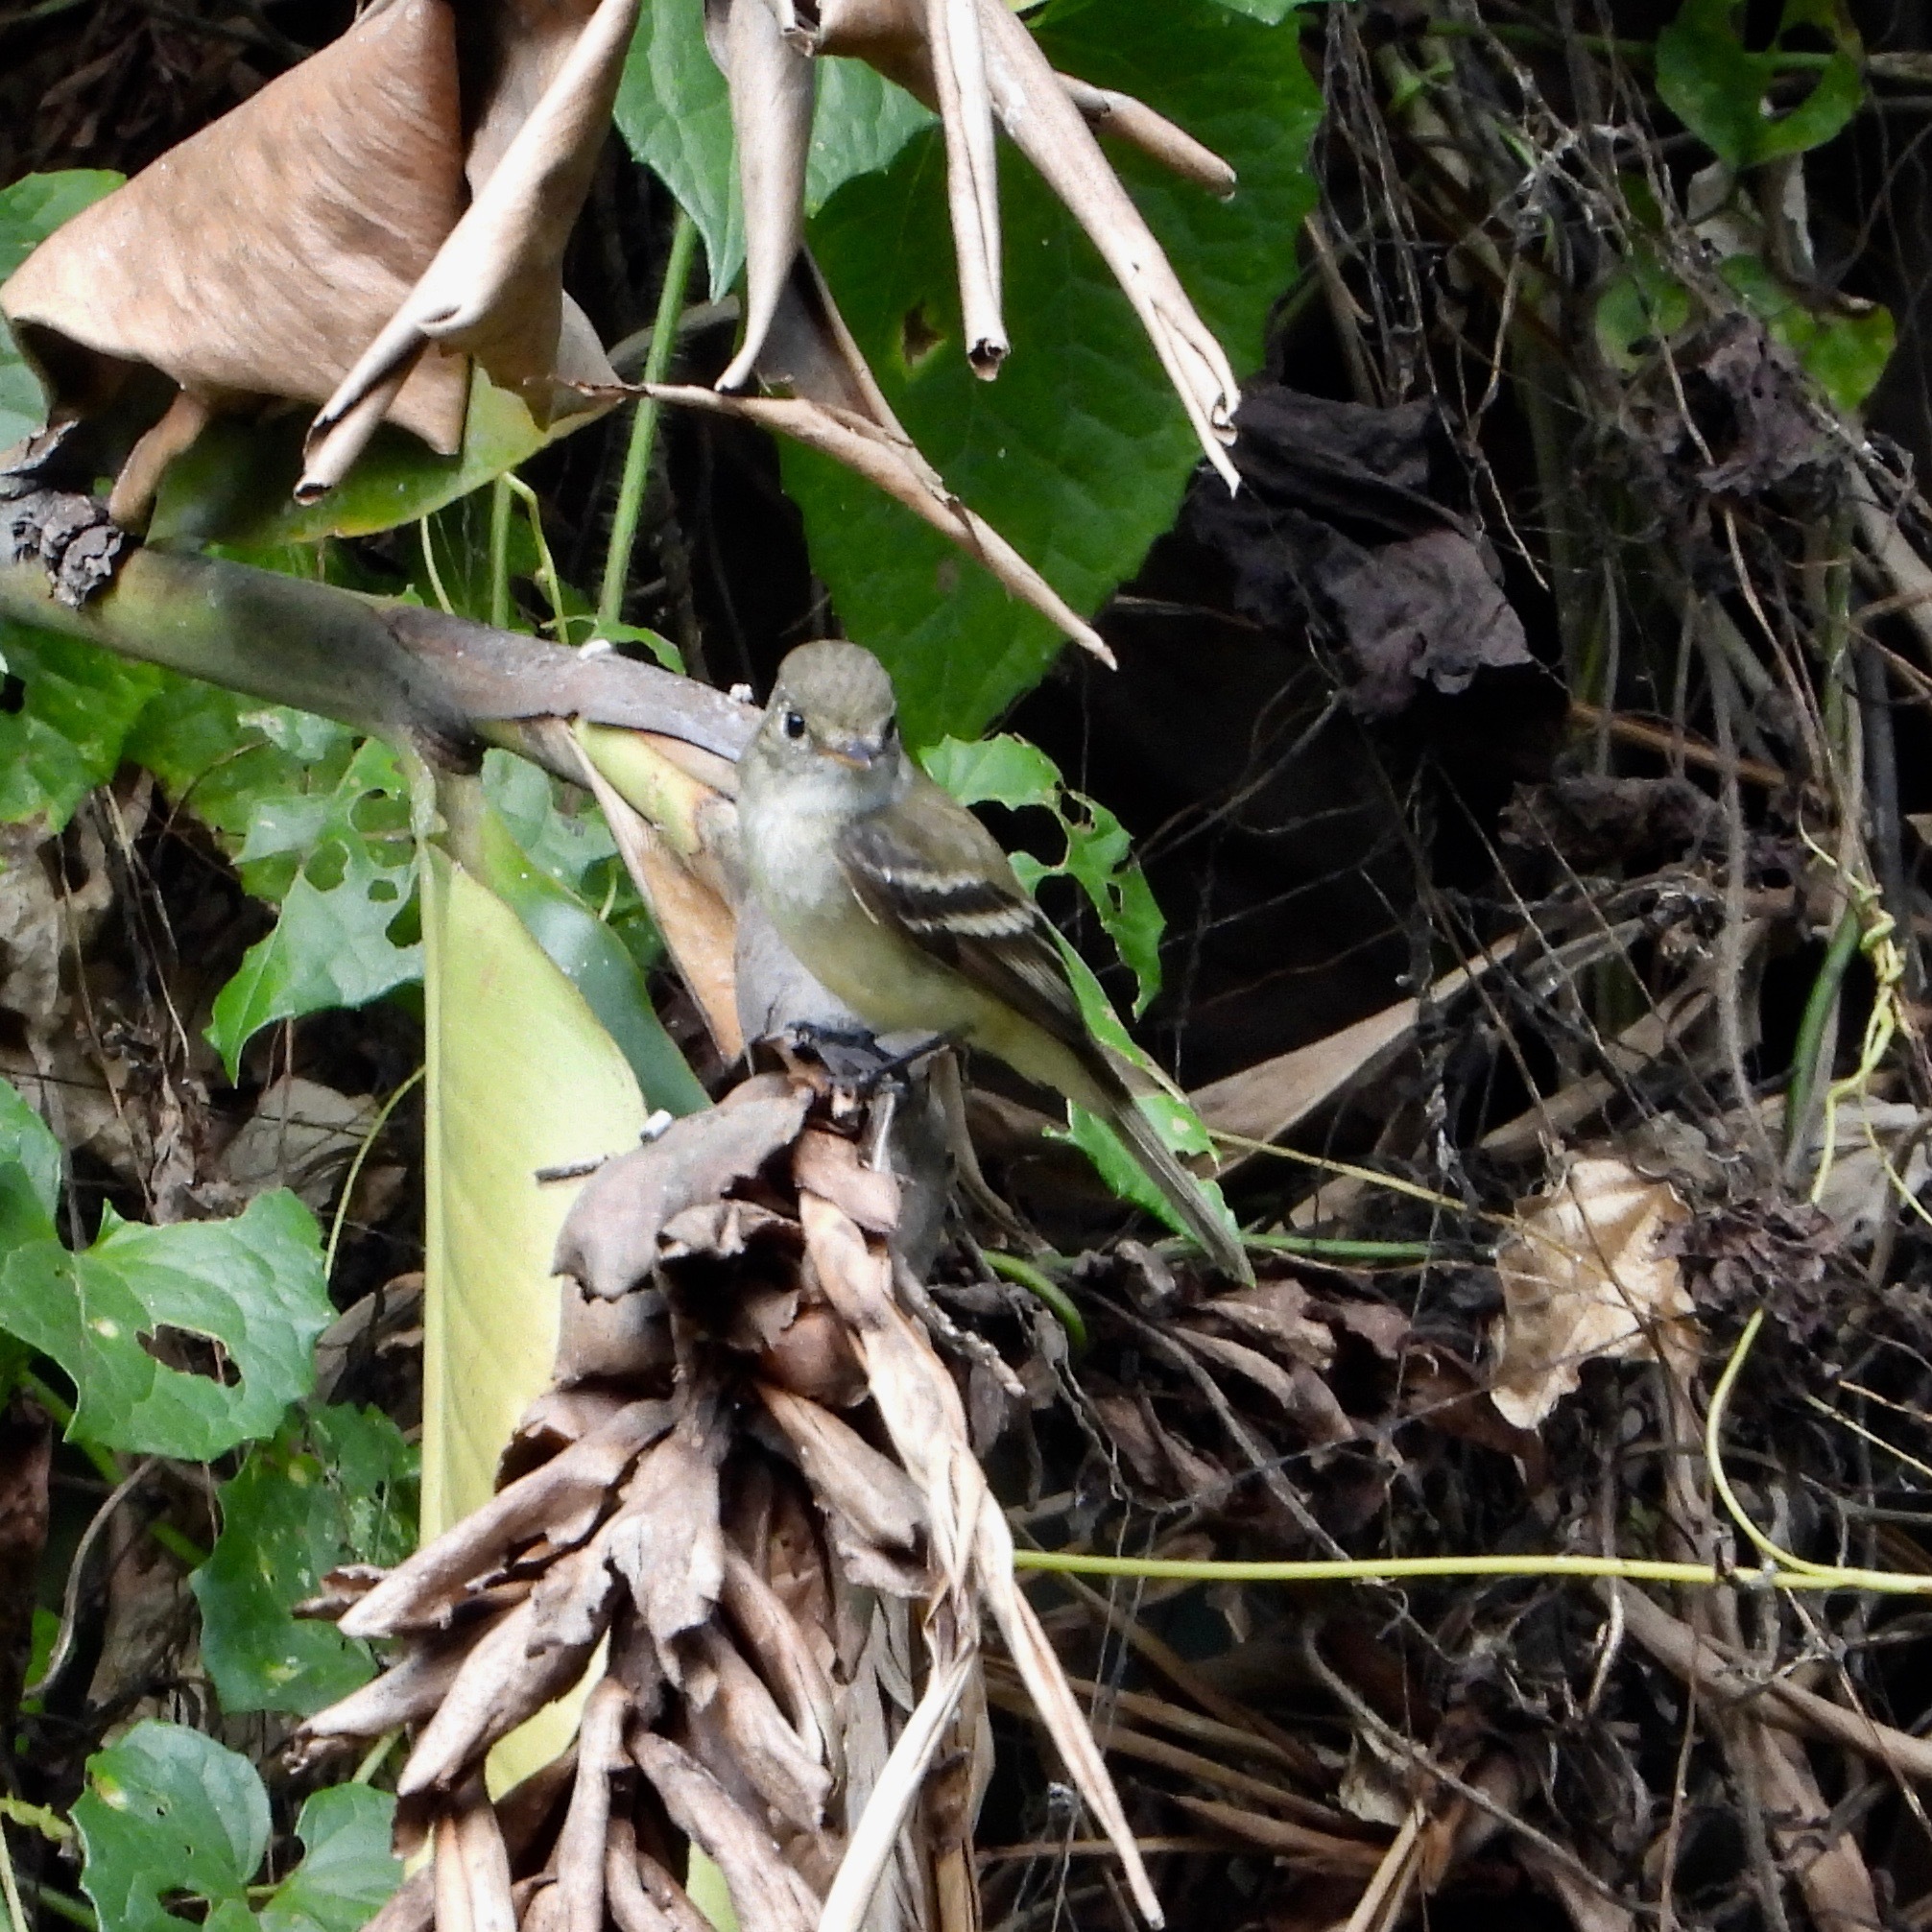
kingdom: Animalia
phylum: Chordata
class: Aves
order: Passeriformes
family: Tyrannidae
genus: Empidonax
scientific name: Empidonax minimus
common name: Least flycatcher
